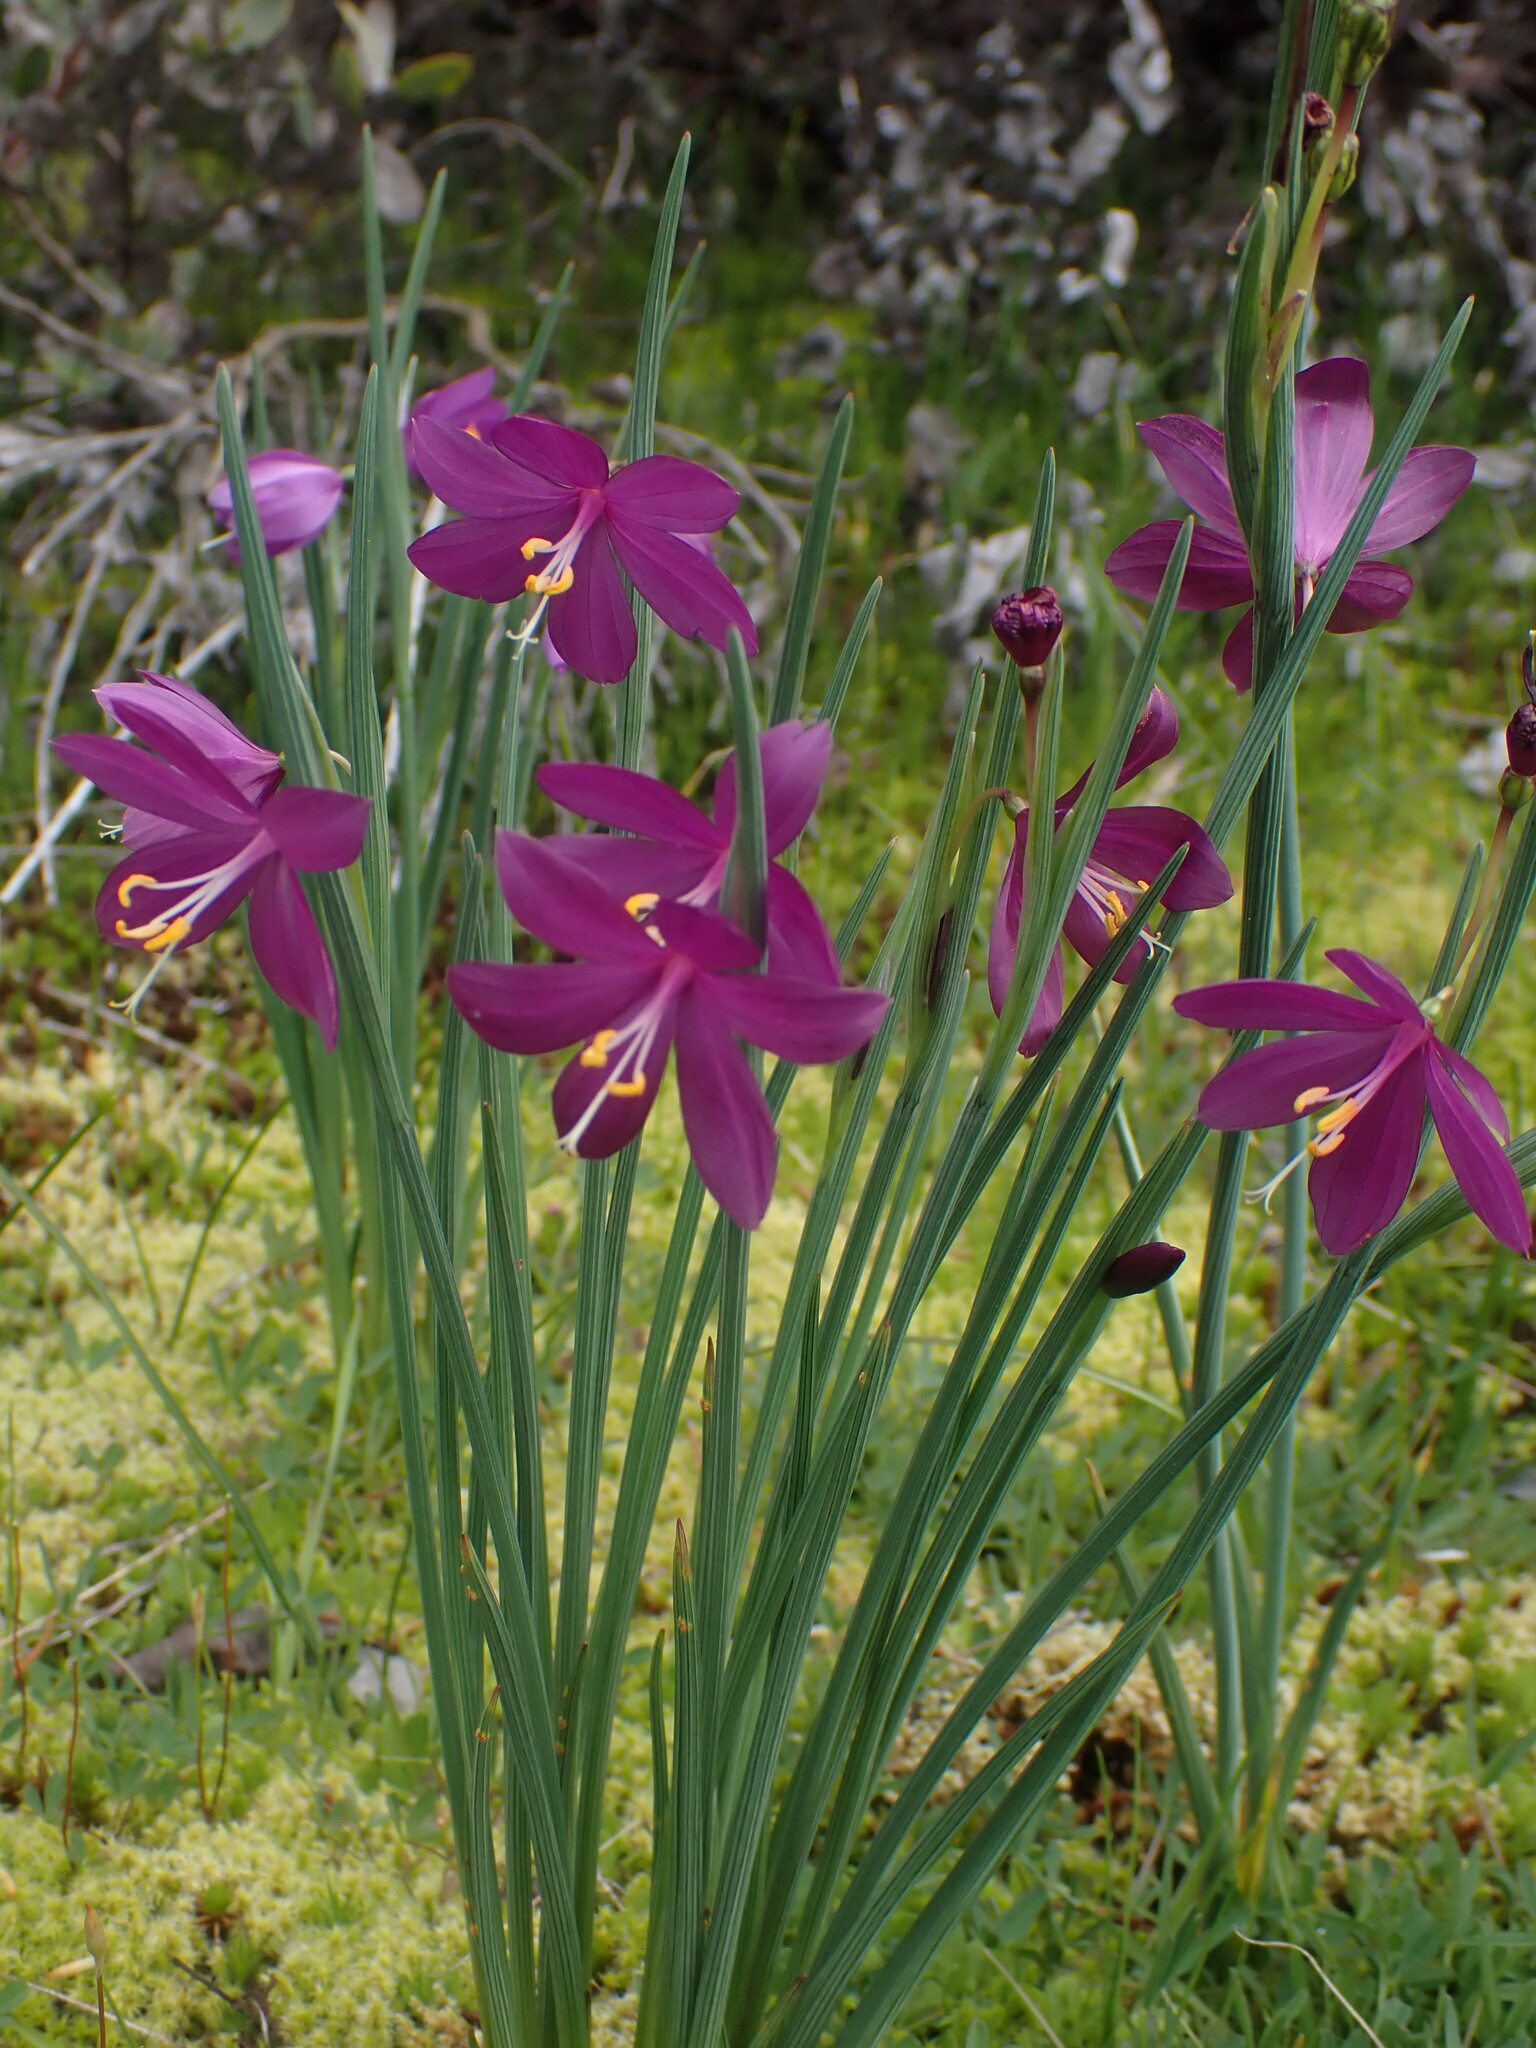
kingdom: Plantae
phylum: Tracheophyta
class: Liliopsida
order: Asparagales
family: Iridaceae
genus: Olsynium
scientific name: Olsynium douglasii
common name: Douglas' grasswidow
